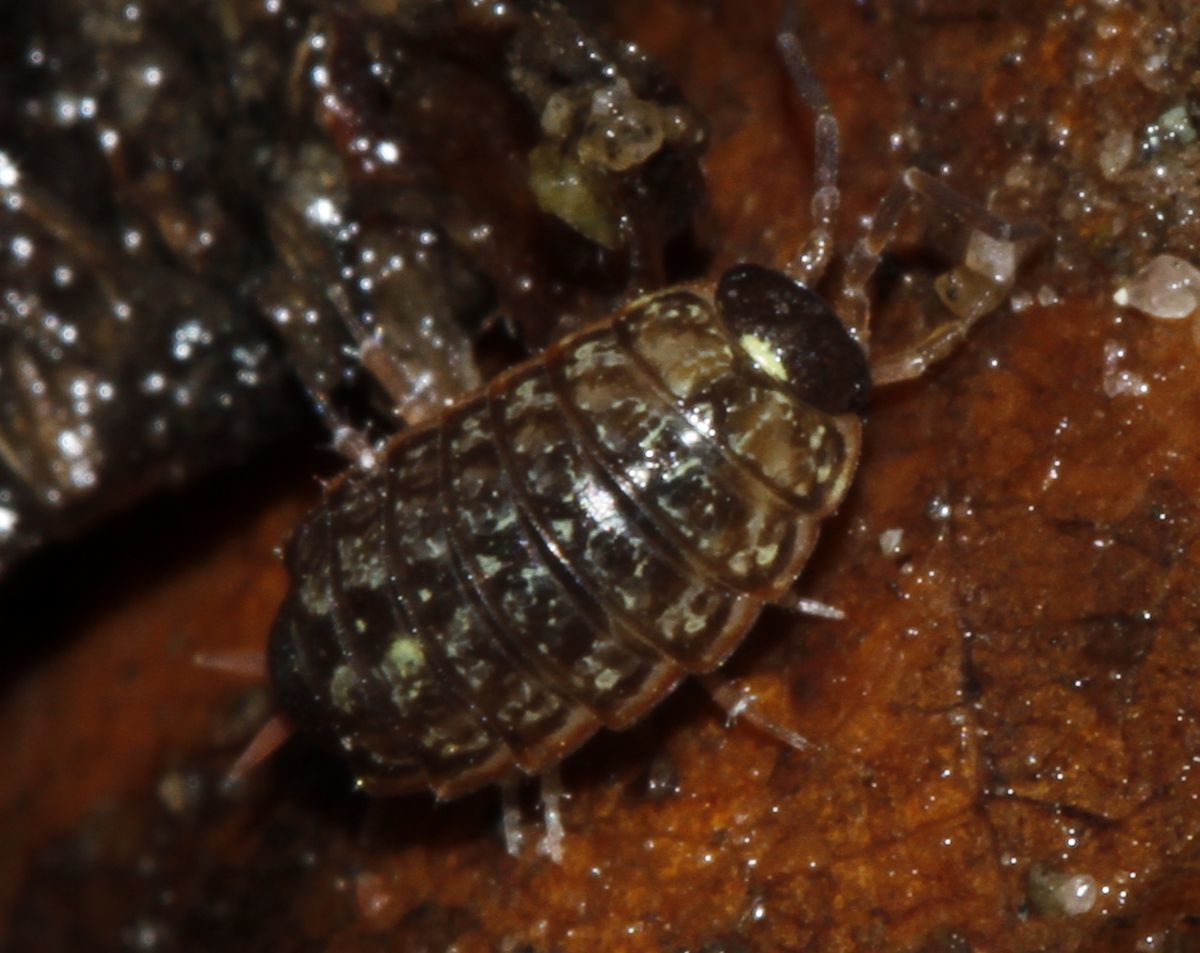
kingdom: Animalia
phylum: Arthropoda
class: Malacostraca
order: Isopoda
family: Philosciidae
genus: Philoscia
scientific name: Philoscia muscorum
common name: Common striped woodlouse
